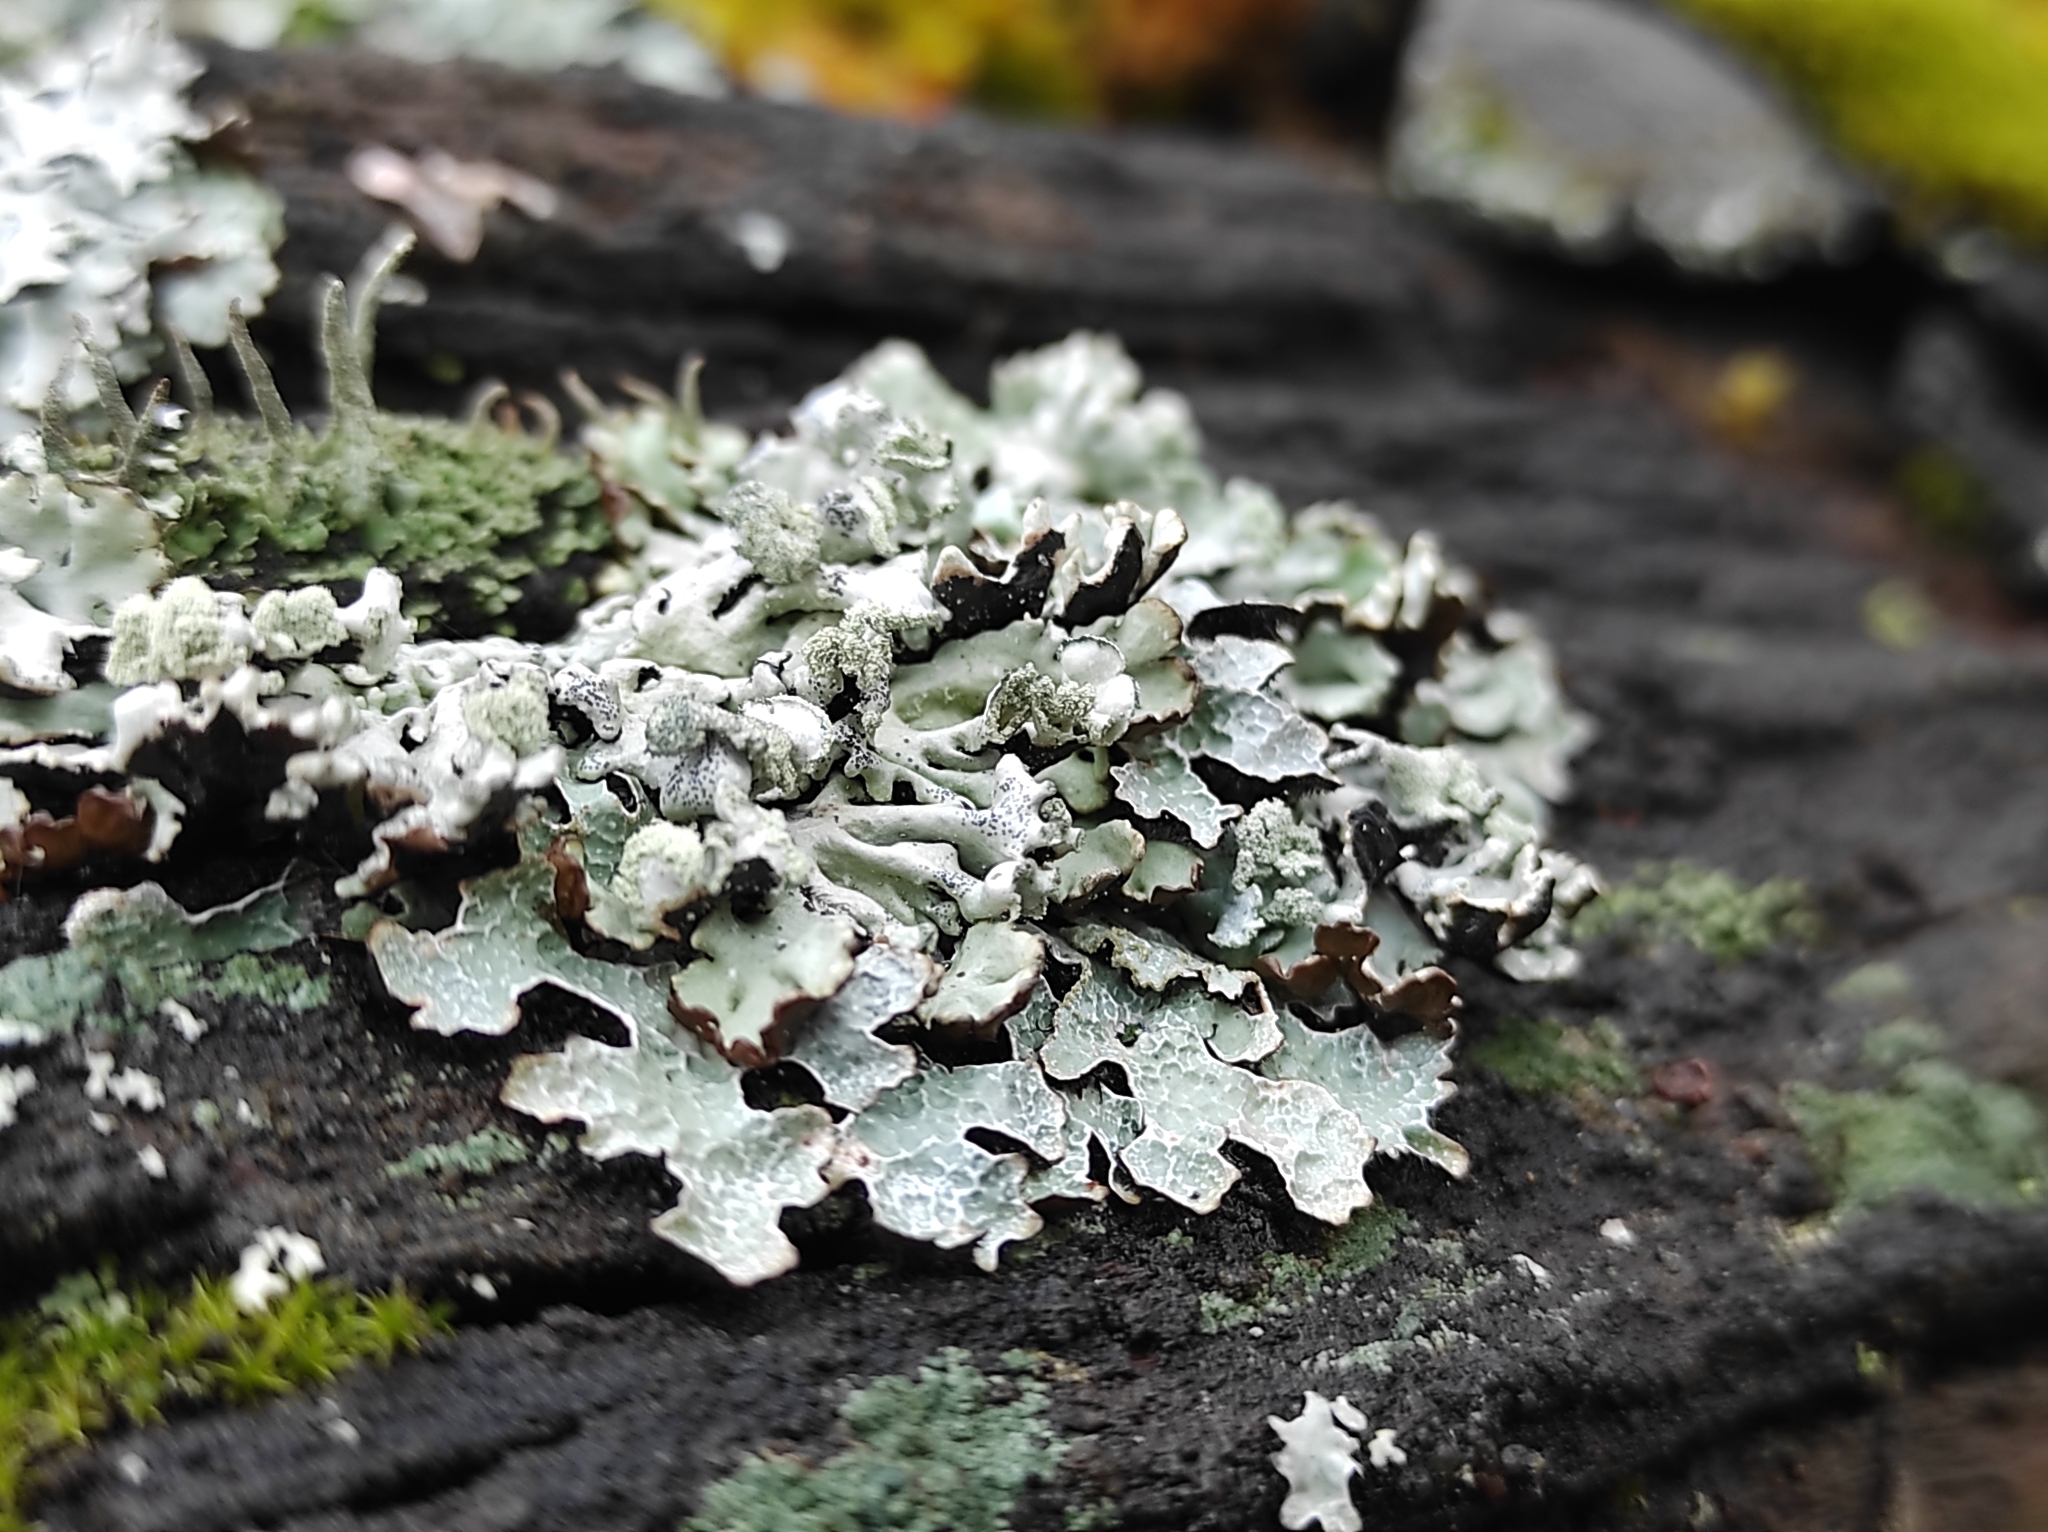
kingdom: Fungi
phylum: Ascomycota
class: Lecanoromycetes
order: Lecanorales
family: Parmeliaceae
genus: Parmelia
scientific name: Parmelia sulcata
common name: Netted shield lichen
